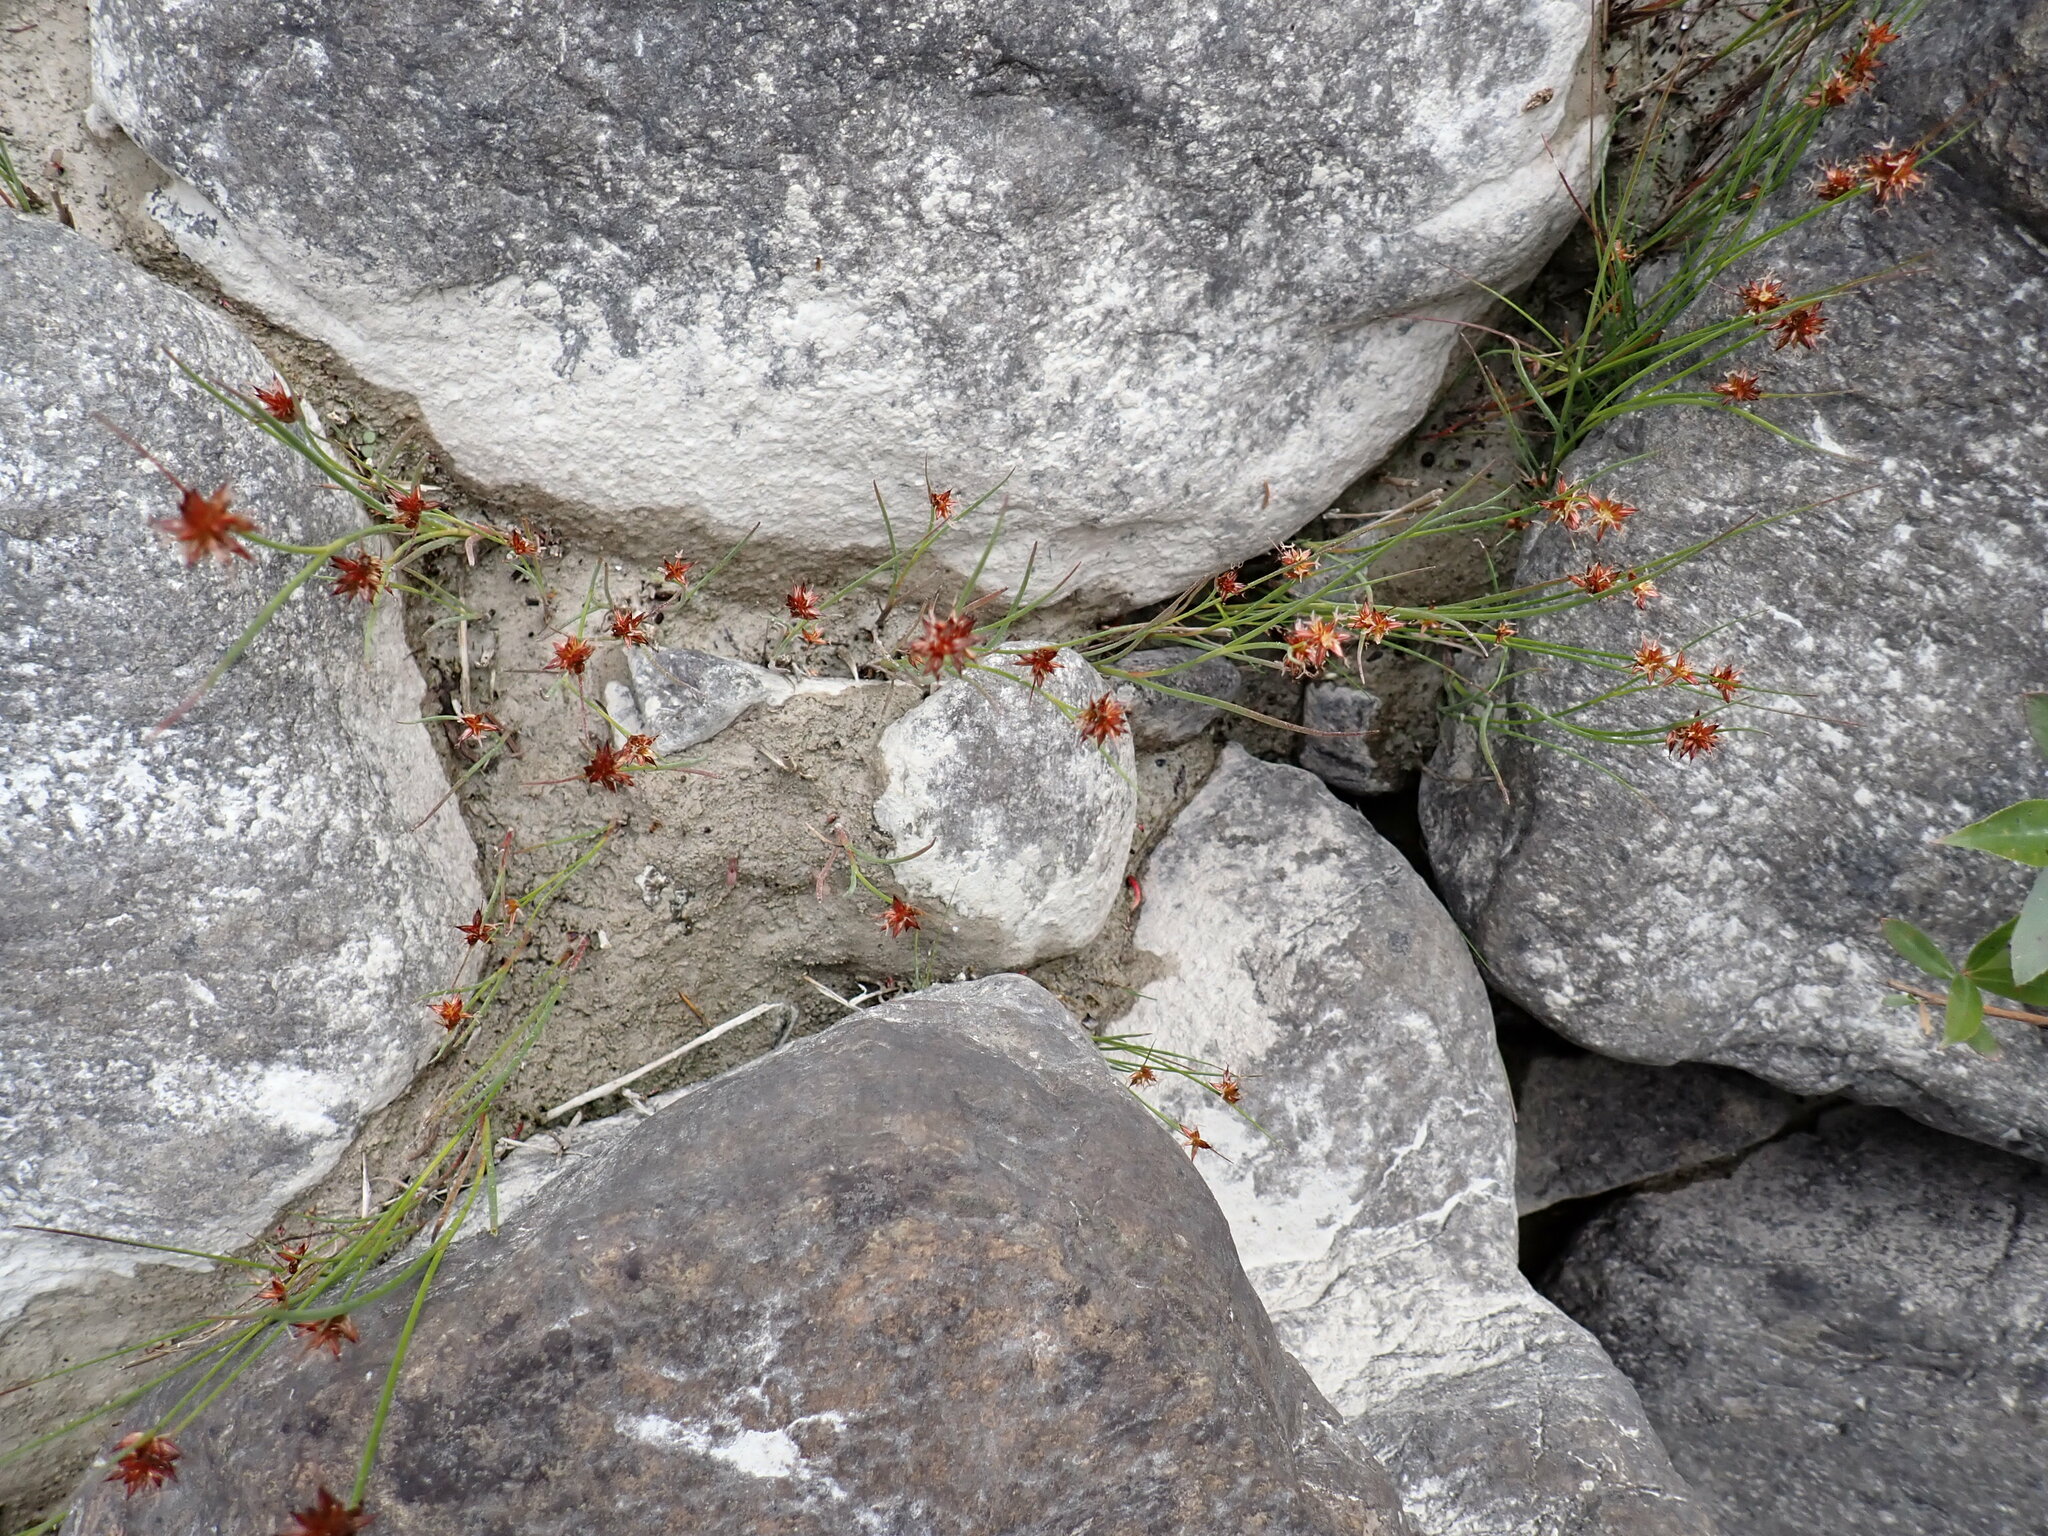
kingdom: Plantae
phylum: Tracheophyta
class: Liliopsida
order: Poales
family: Juncaceae
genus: Juncus
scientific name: Juncus nodosus
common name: Knotted rush
